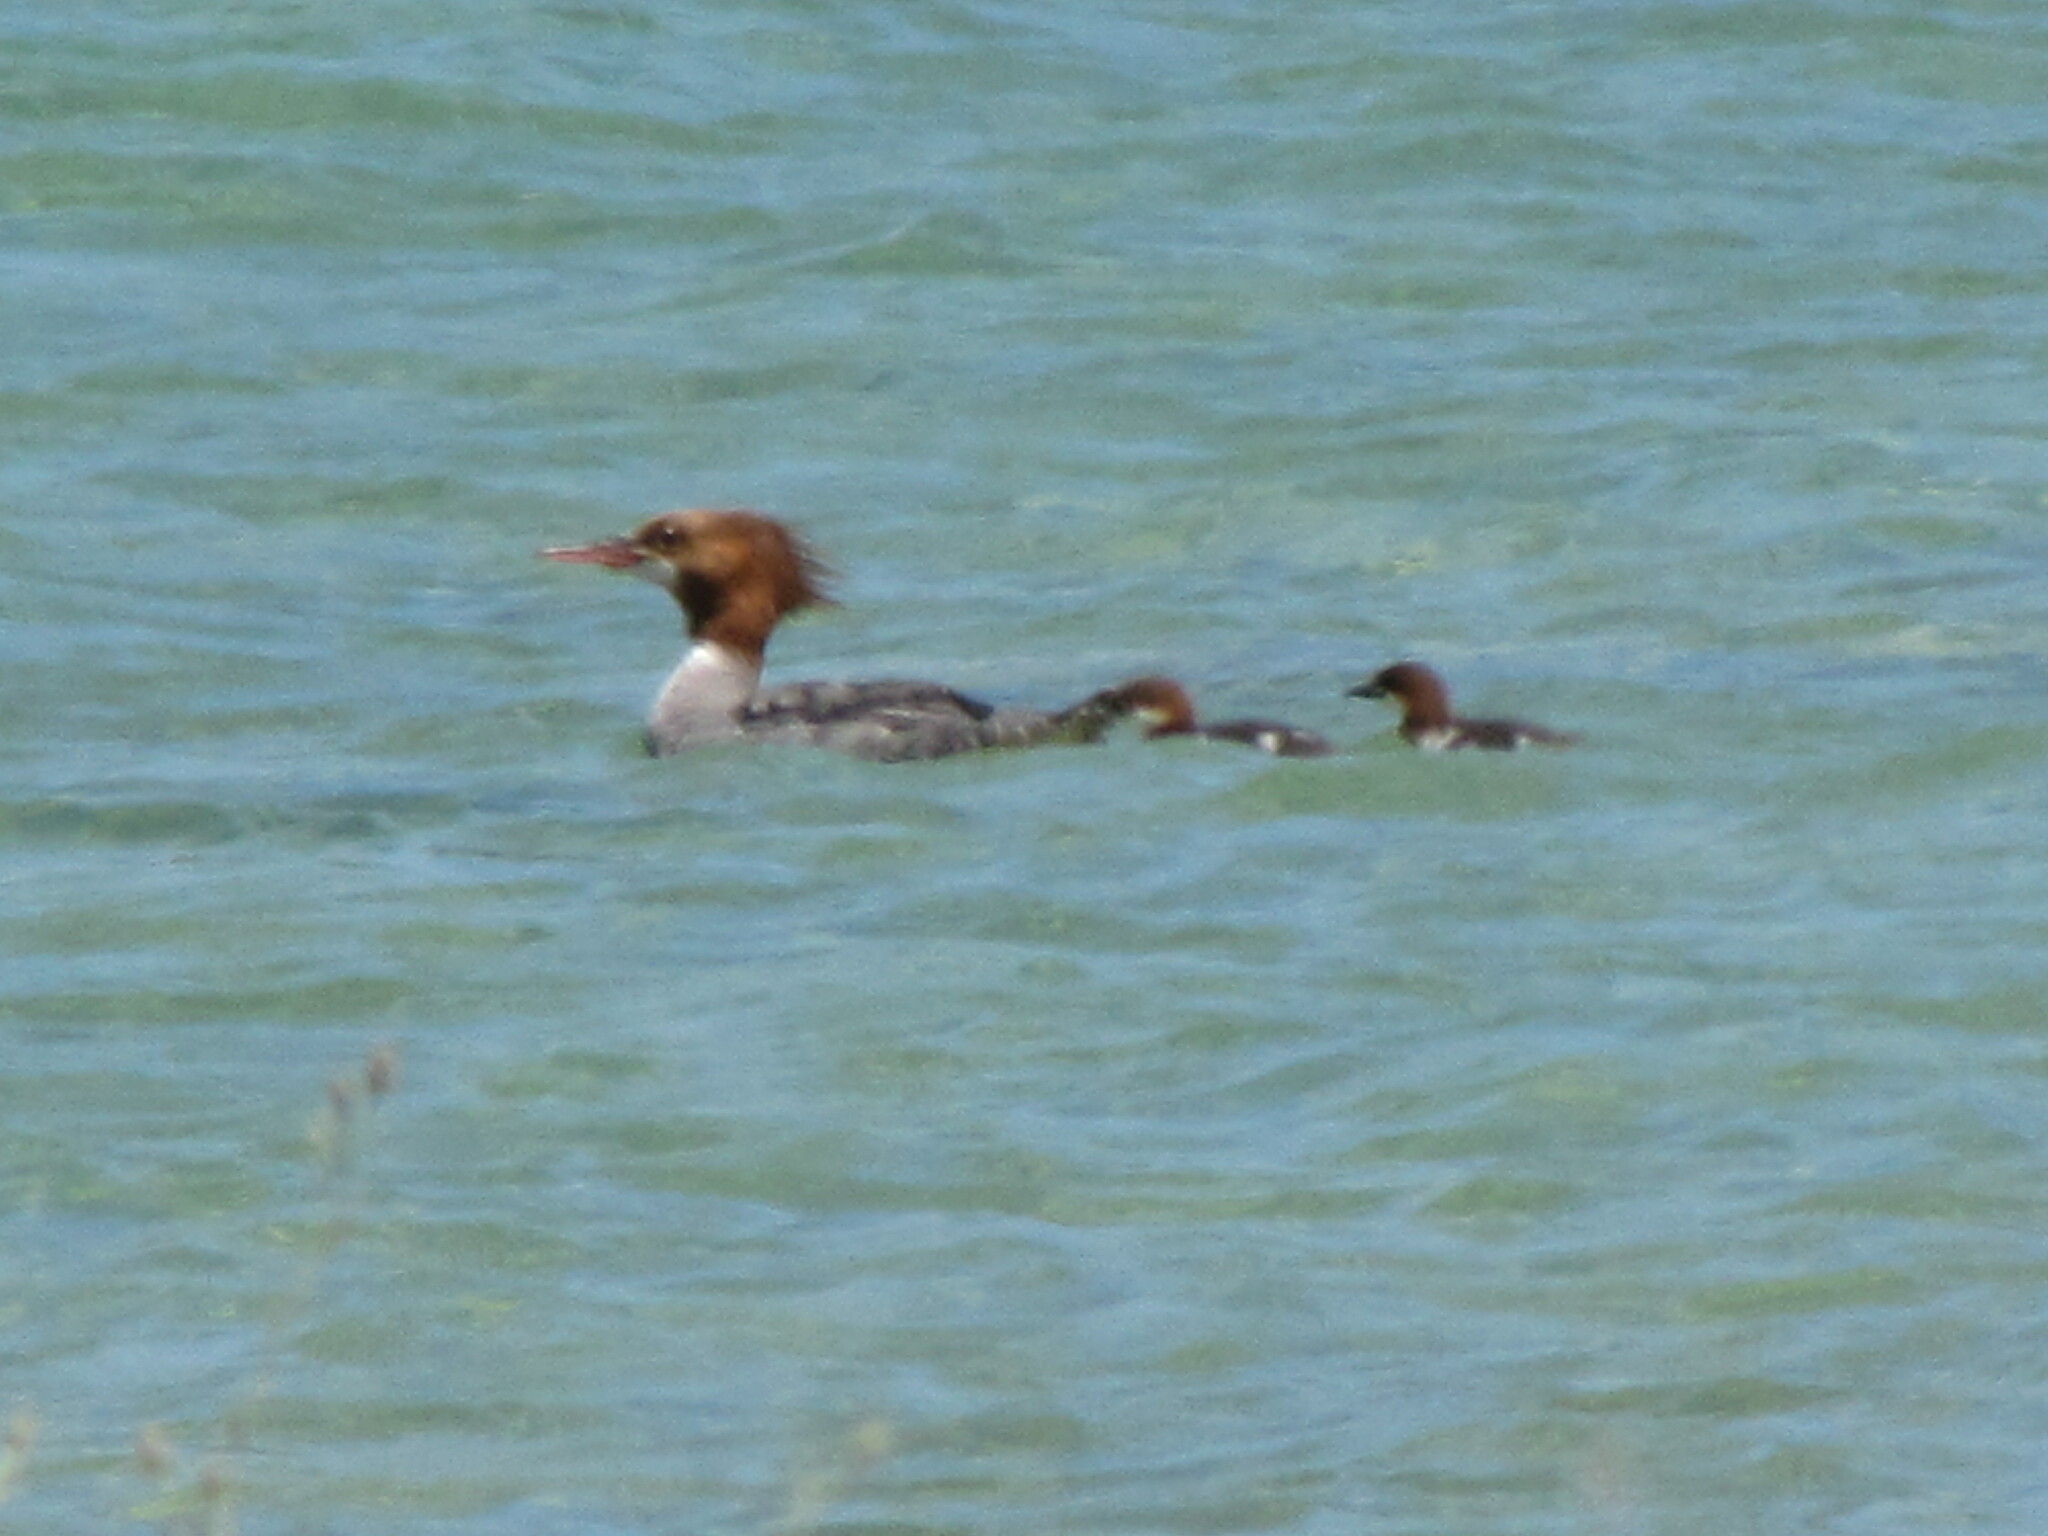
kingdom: Animalia
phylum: Chordata
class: Aves
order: Anseriformes
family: Anatidae
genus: Mergus
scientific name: Mergus merganser
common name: Common merganser
